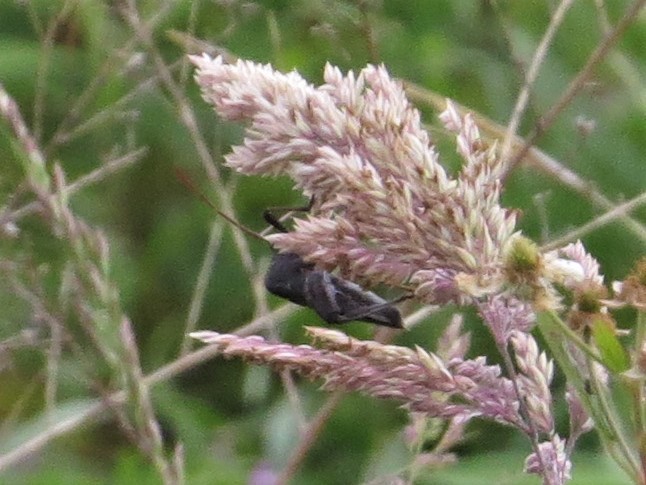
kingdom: Animalia
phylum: Arthropoda
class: Insecta
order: Hemiptera
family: Coreidae
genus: Acanthocephala
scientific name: Acanthocephala femorata
